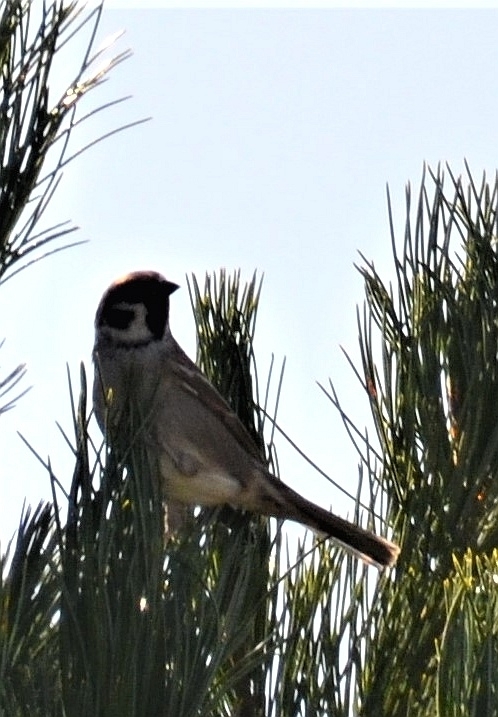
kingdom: Animalia
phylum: Chordata
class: Aves
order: Passeriformes
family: Passeridae
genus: Passer
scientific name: Passer montanus
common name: Eurasian tree sparrow
